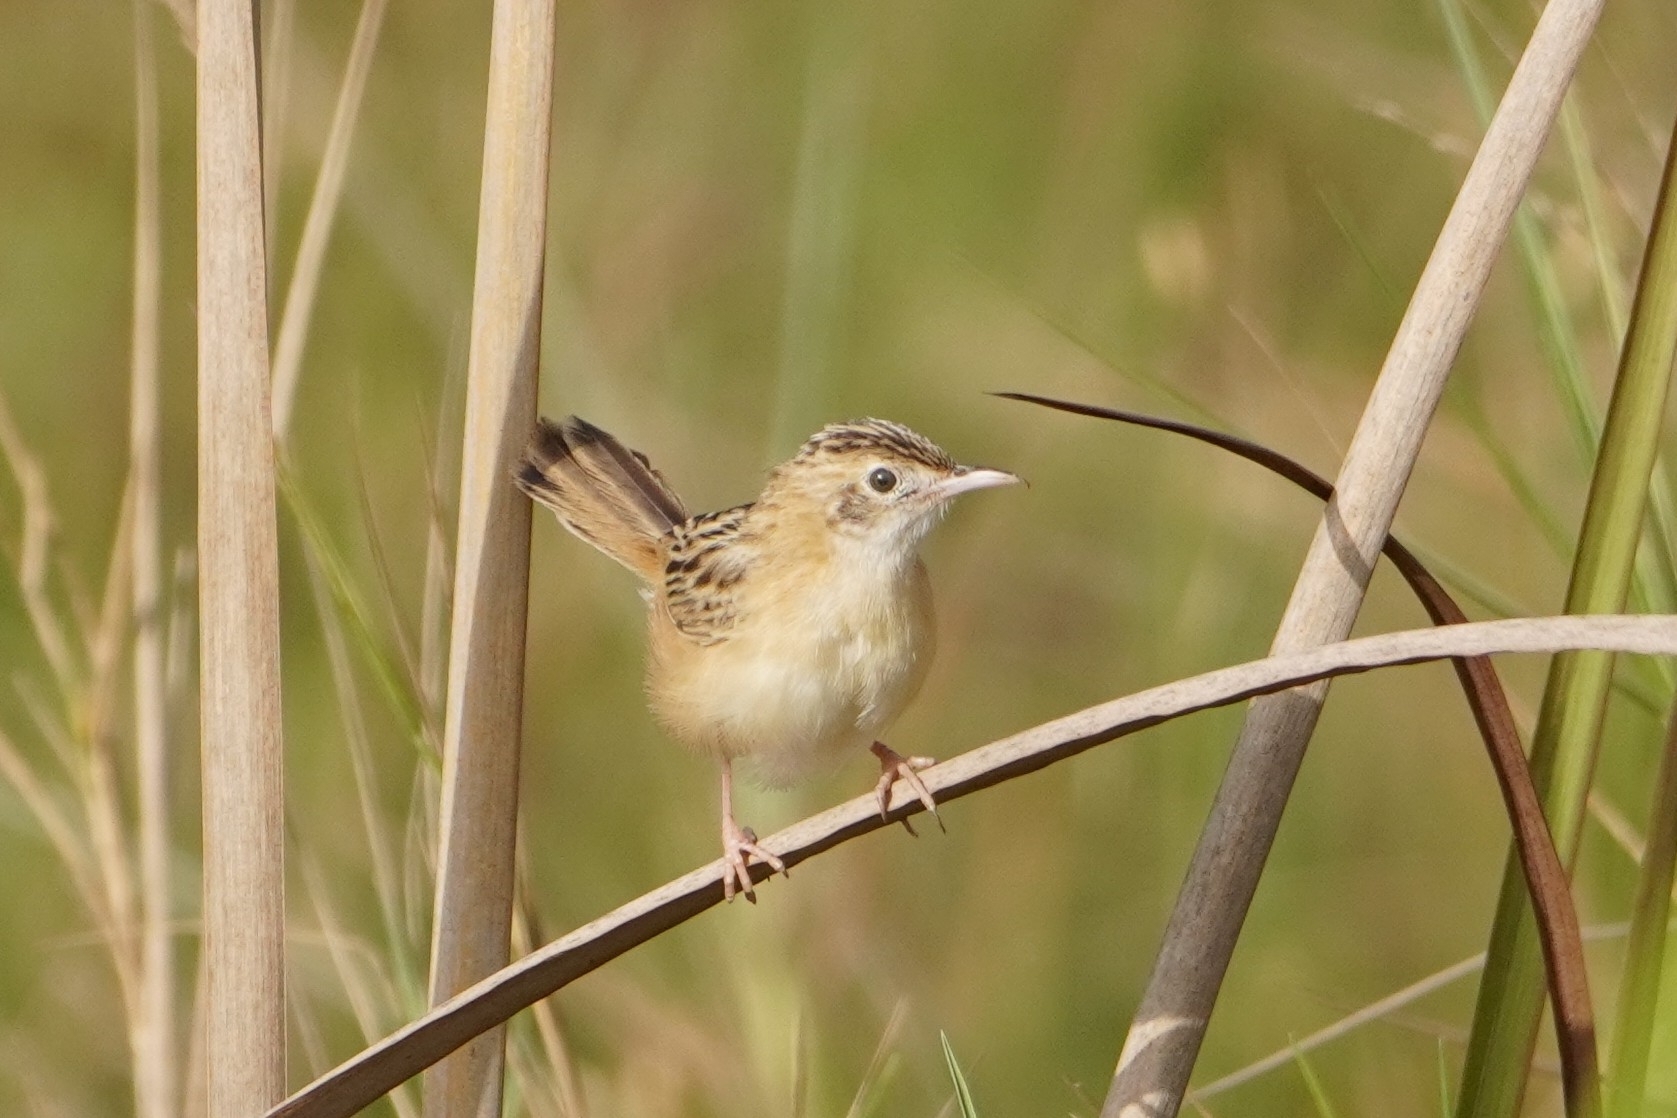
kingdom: Animalia
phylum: Chordata
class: Aves
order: Passeriformes
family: Cisticolidae
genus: Cisticola
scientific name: Cisticola juncidis
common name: Zitting cisticola
